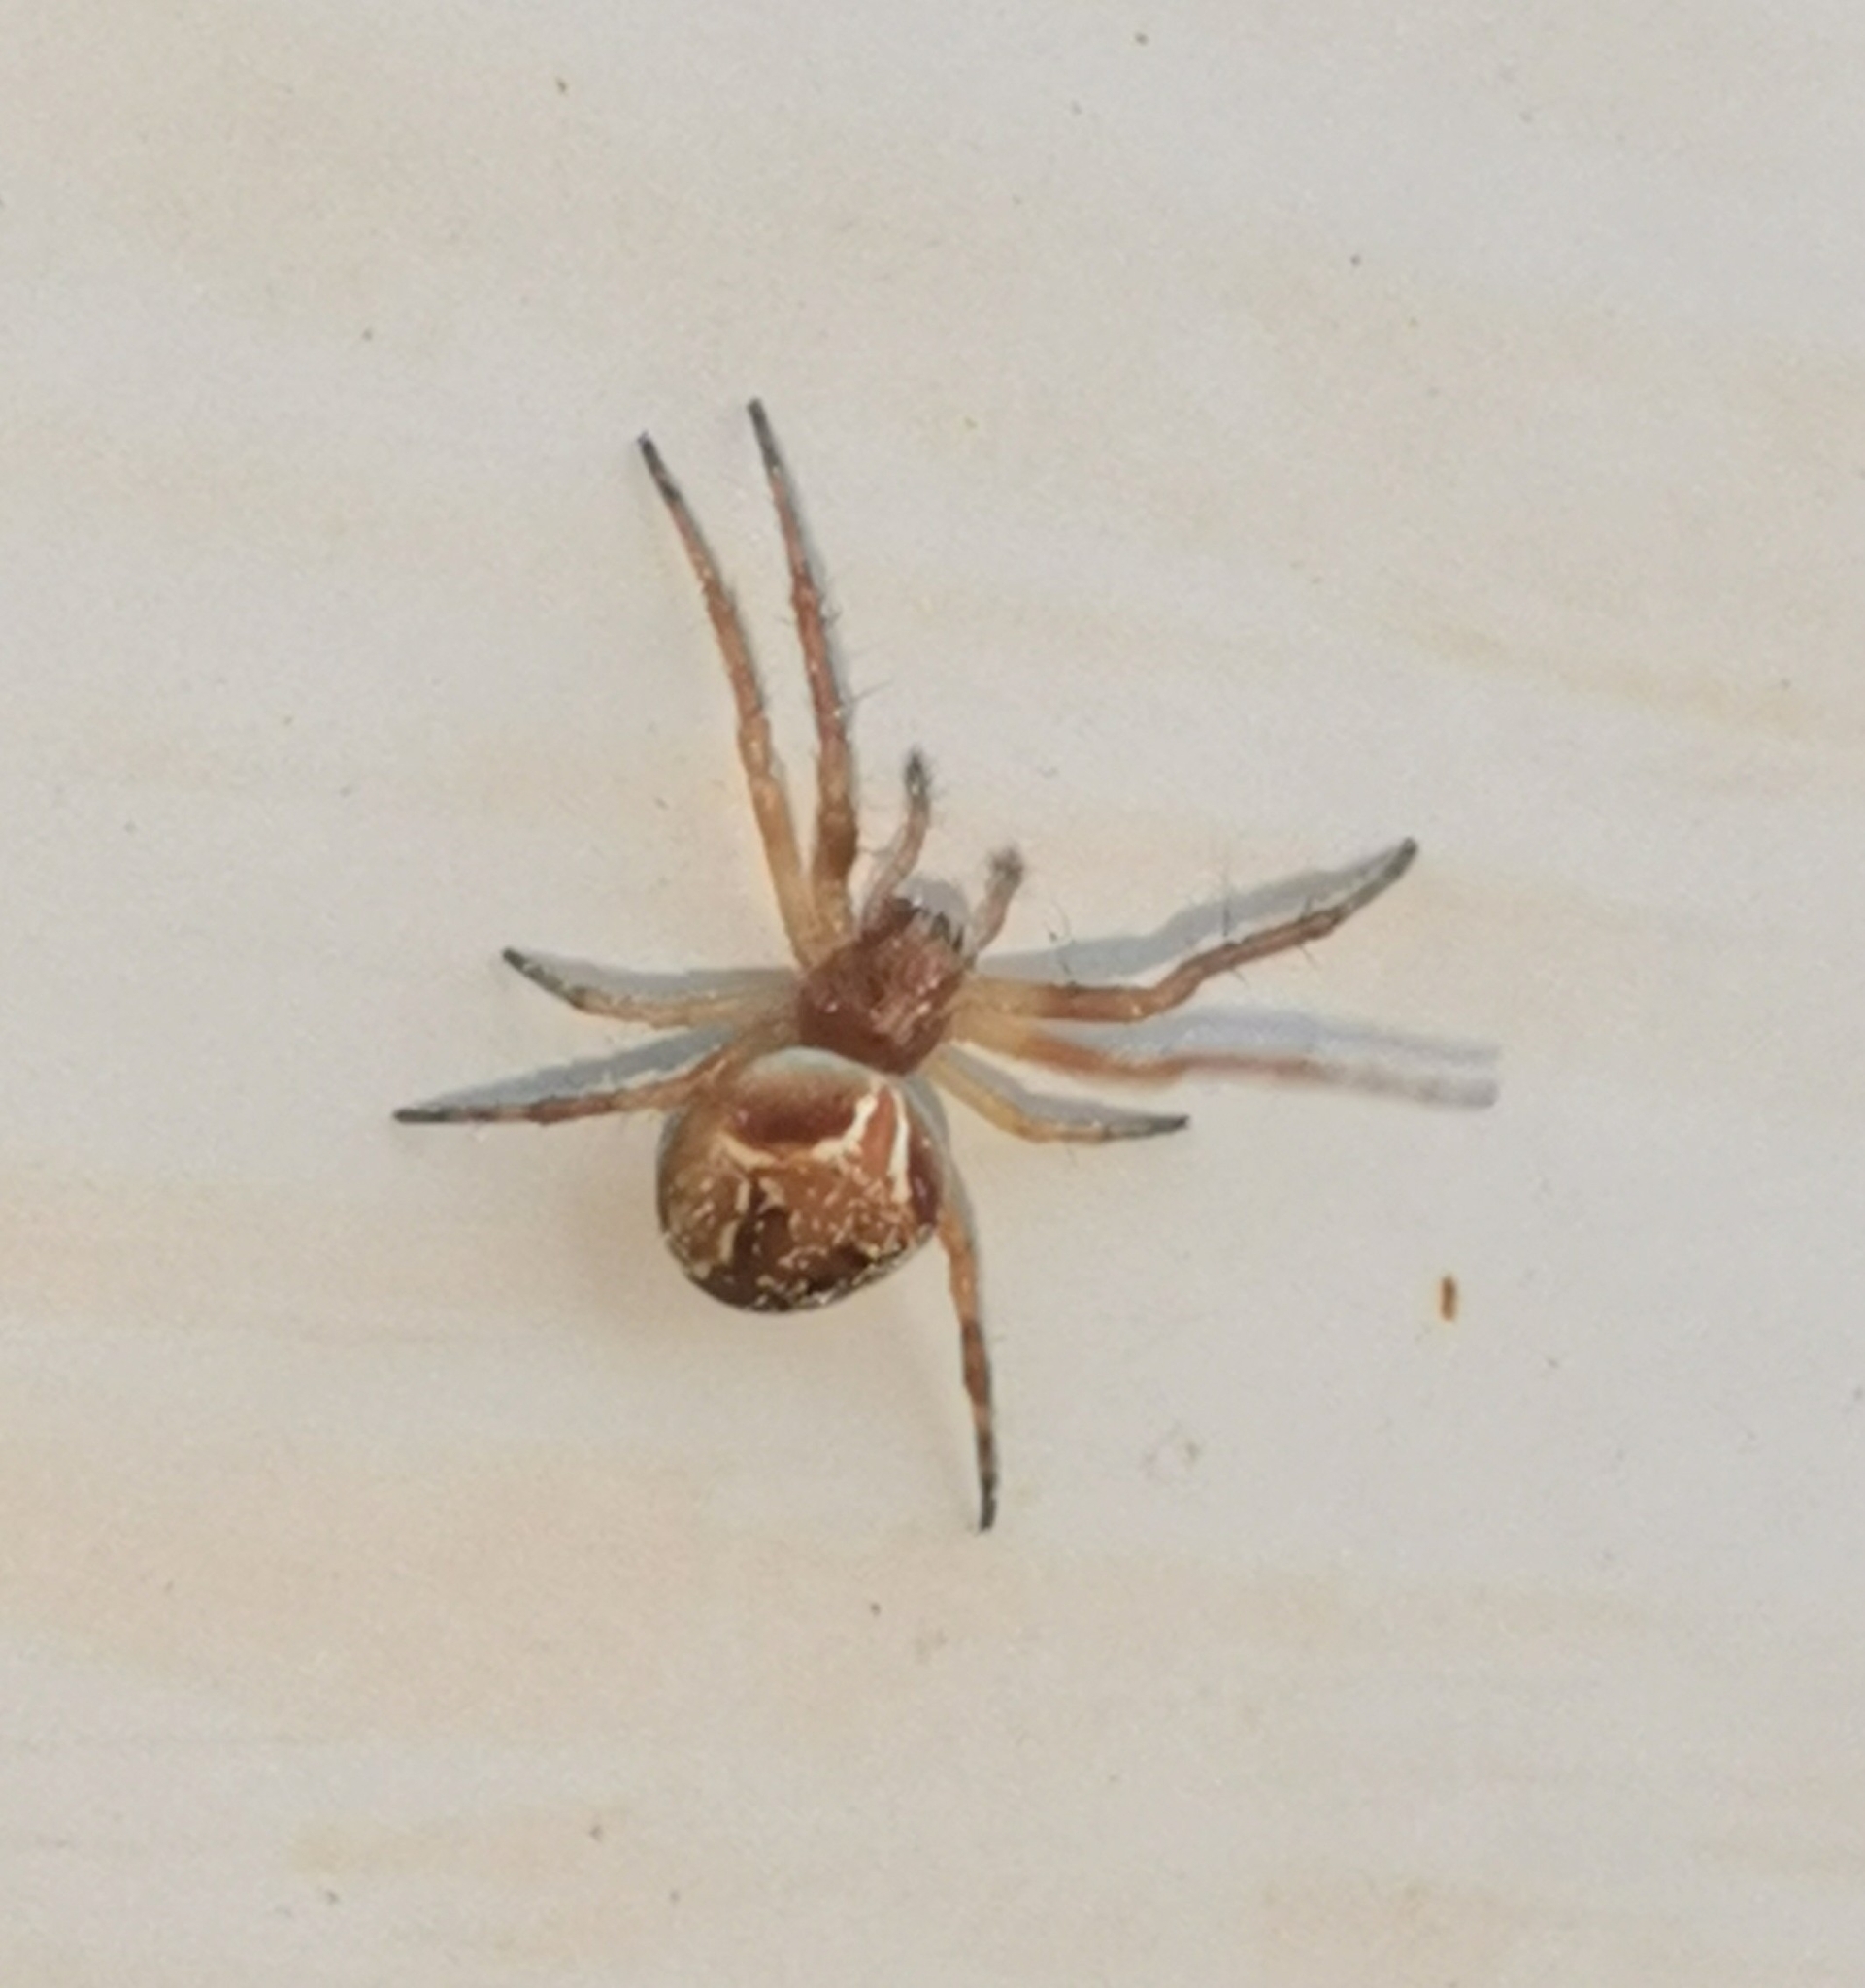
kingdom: Animalia
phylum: Arthropoda
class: Arachnida
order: Araneae
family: Araneidae
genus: Araneus
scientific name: Araneus sturmi
